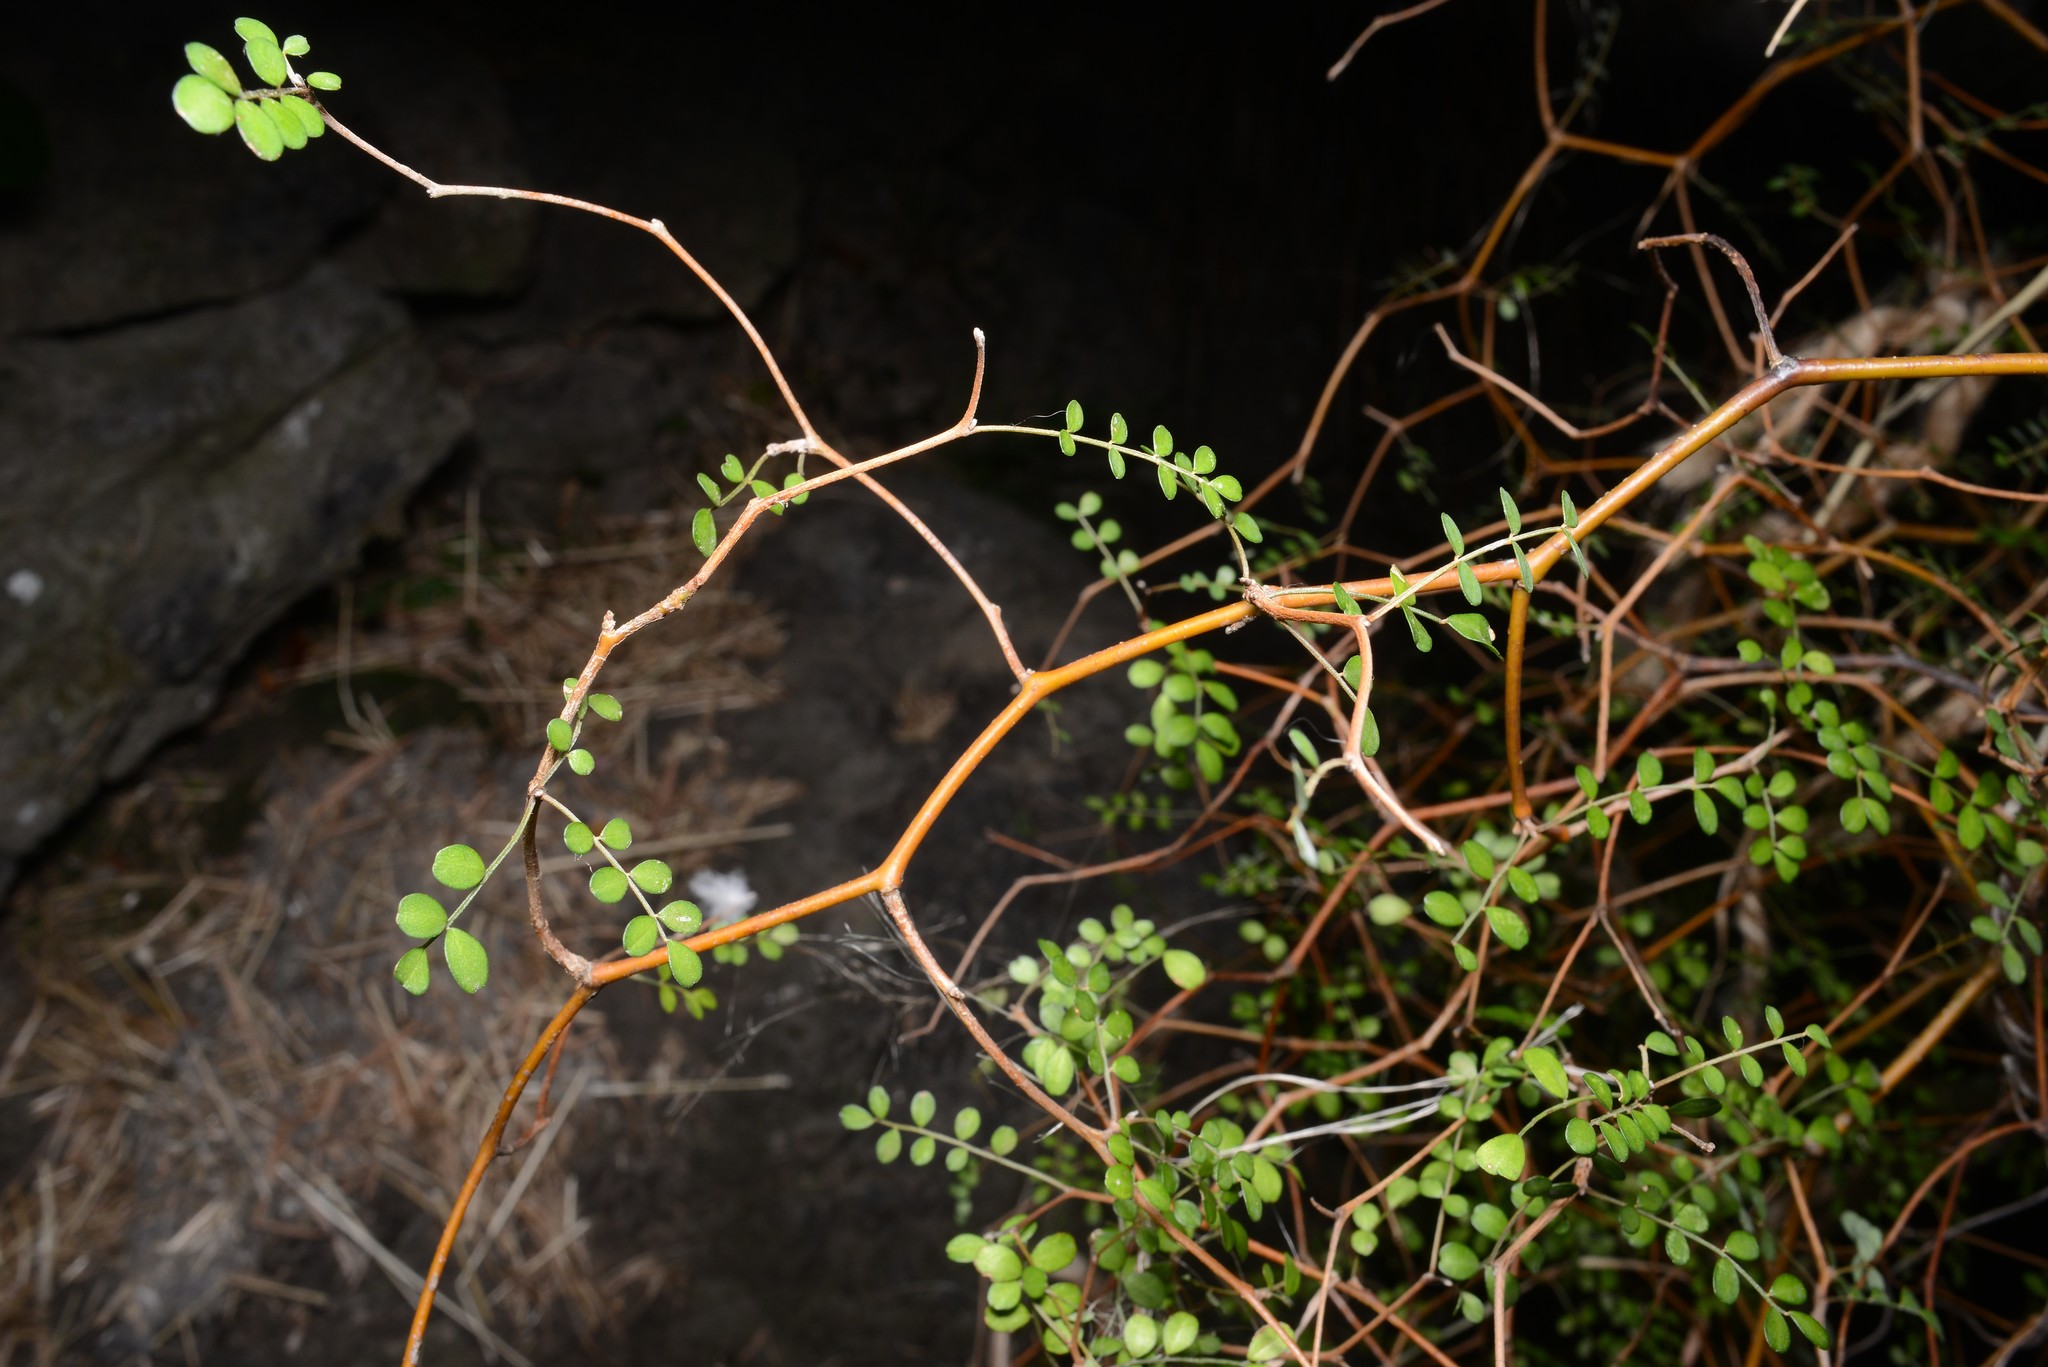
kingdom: Plantae
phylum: Tracheophyta
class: Magnoliopsida
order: Fabales
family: Fabaceae
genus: Sophora
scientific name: Sophora microphylla
